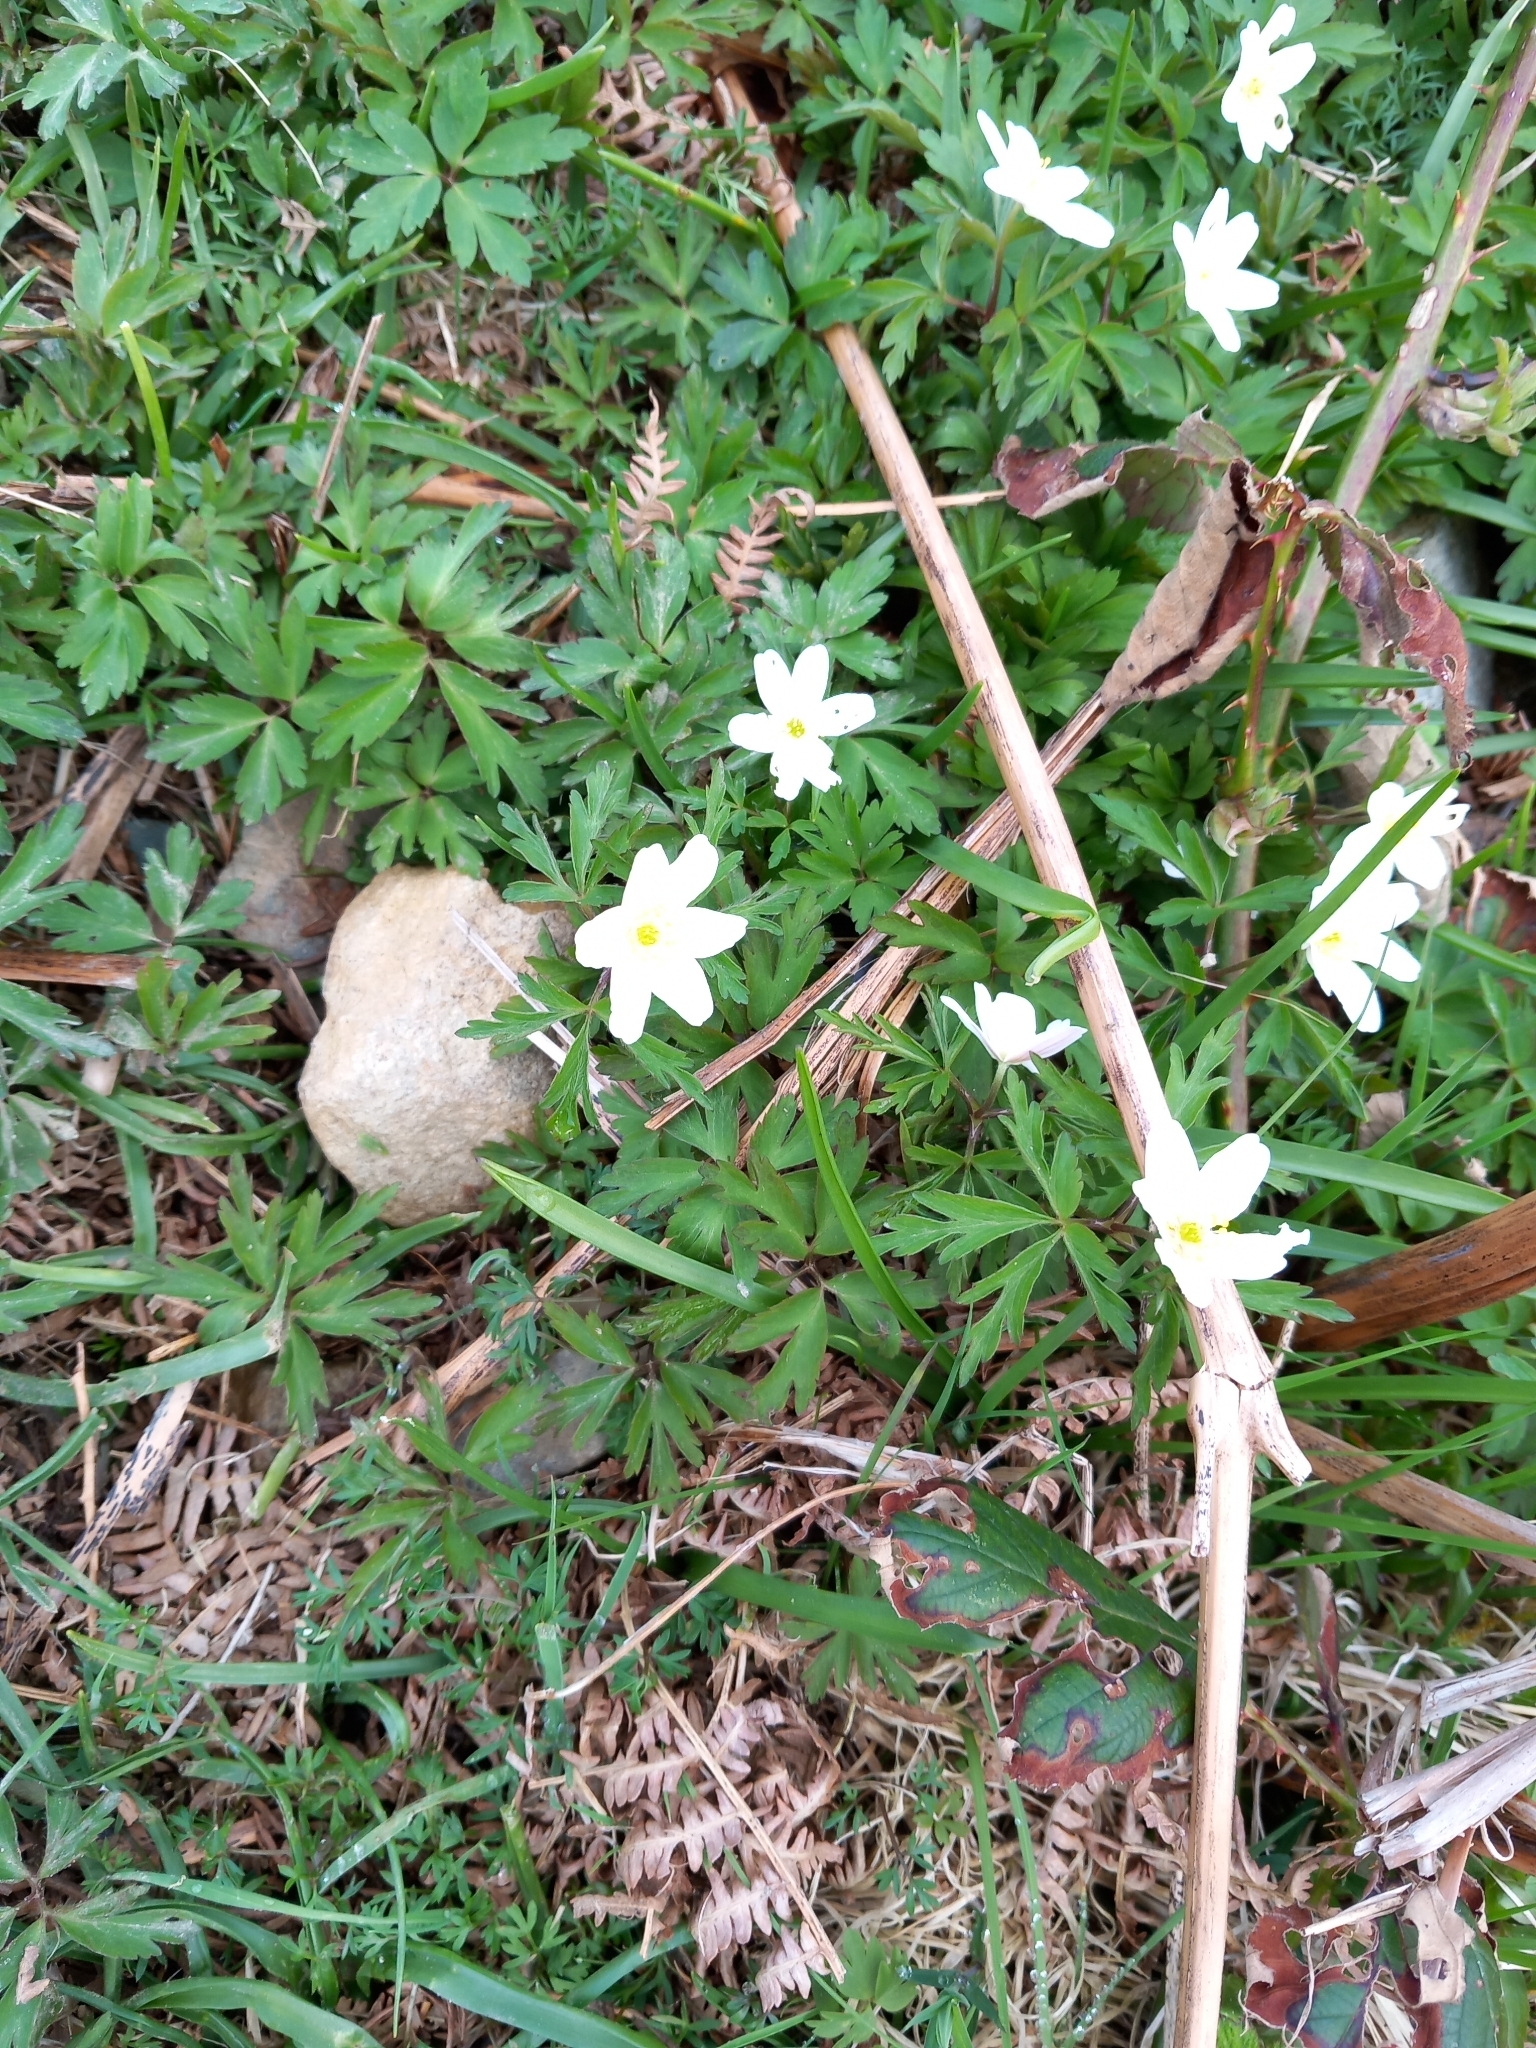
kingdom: Plantae
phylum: Tracheophyta
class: Magnoliopsida
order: Ranunculales
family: Ranunculaceae
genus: Anemone
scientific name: Anemone nemorosa
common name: Wood anemone
